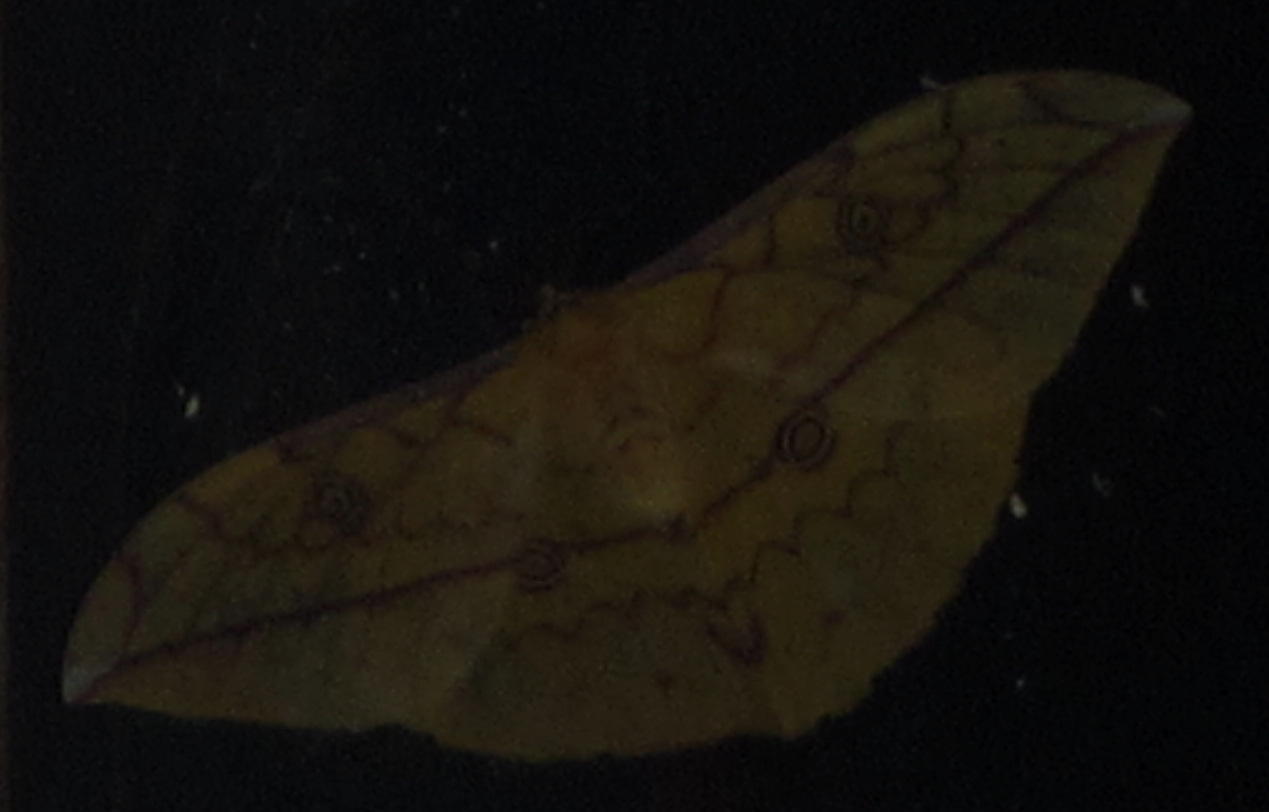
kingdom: Animalia
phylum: Arthropoda
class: Insecta
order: Lepidoptera
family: Saturniidae
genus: Pselaphelia
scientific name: Pselaphelia flavivitta
